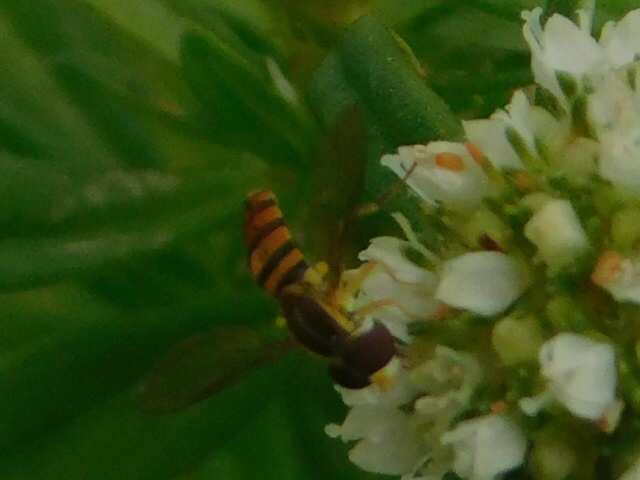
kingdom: Animalia
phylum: Arthropoda
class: Insecta
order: Diptera
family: Syrphidae
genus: Toxomerus
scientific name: Toxomerus corbis
